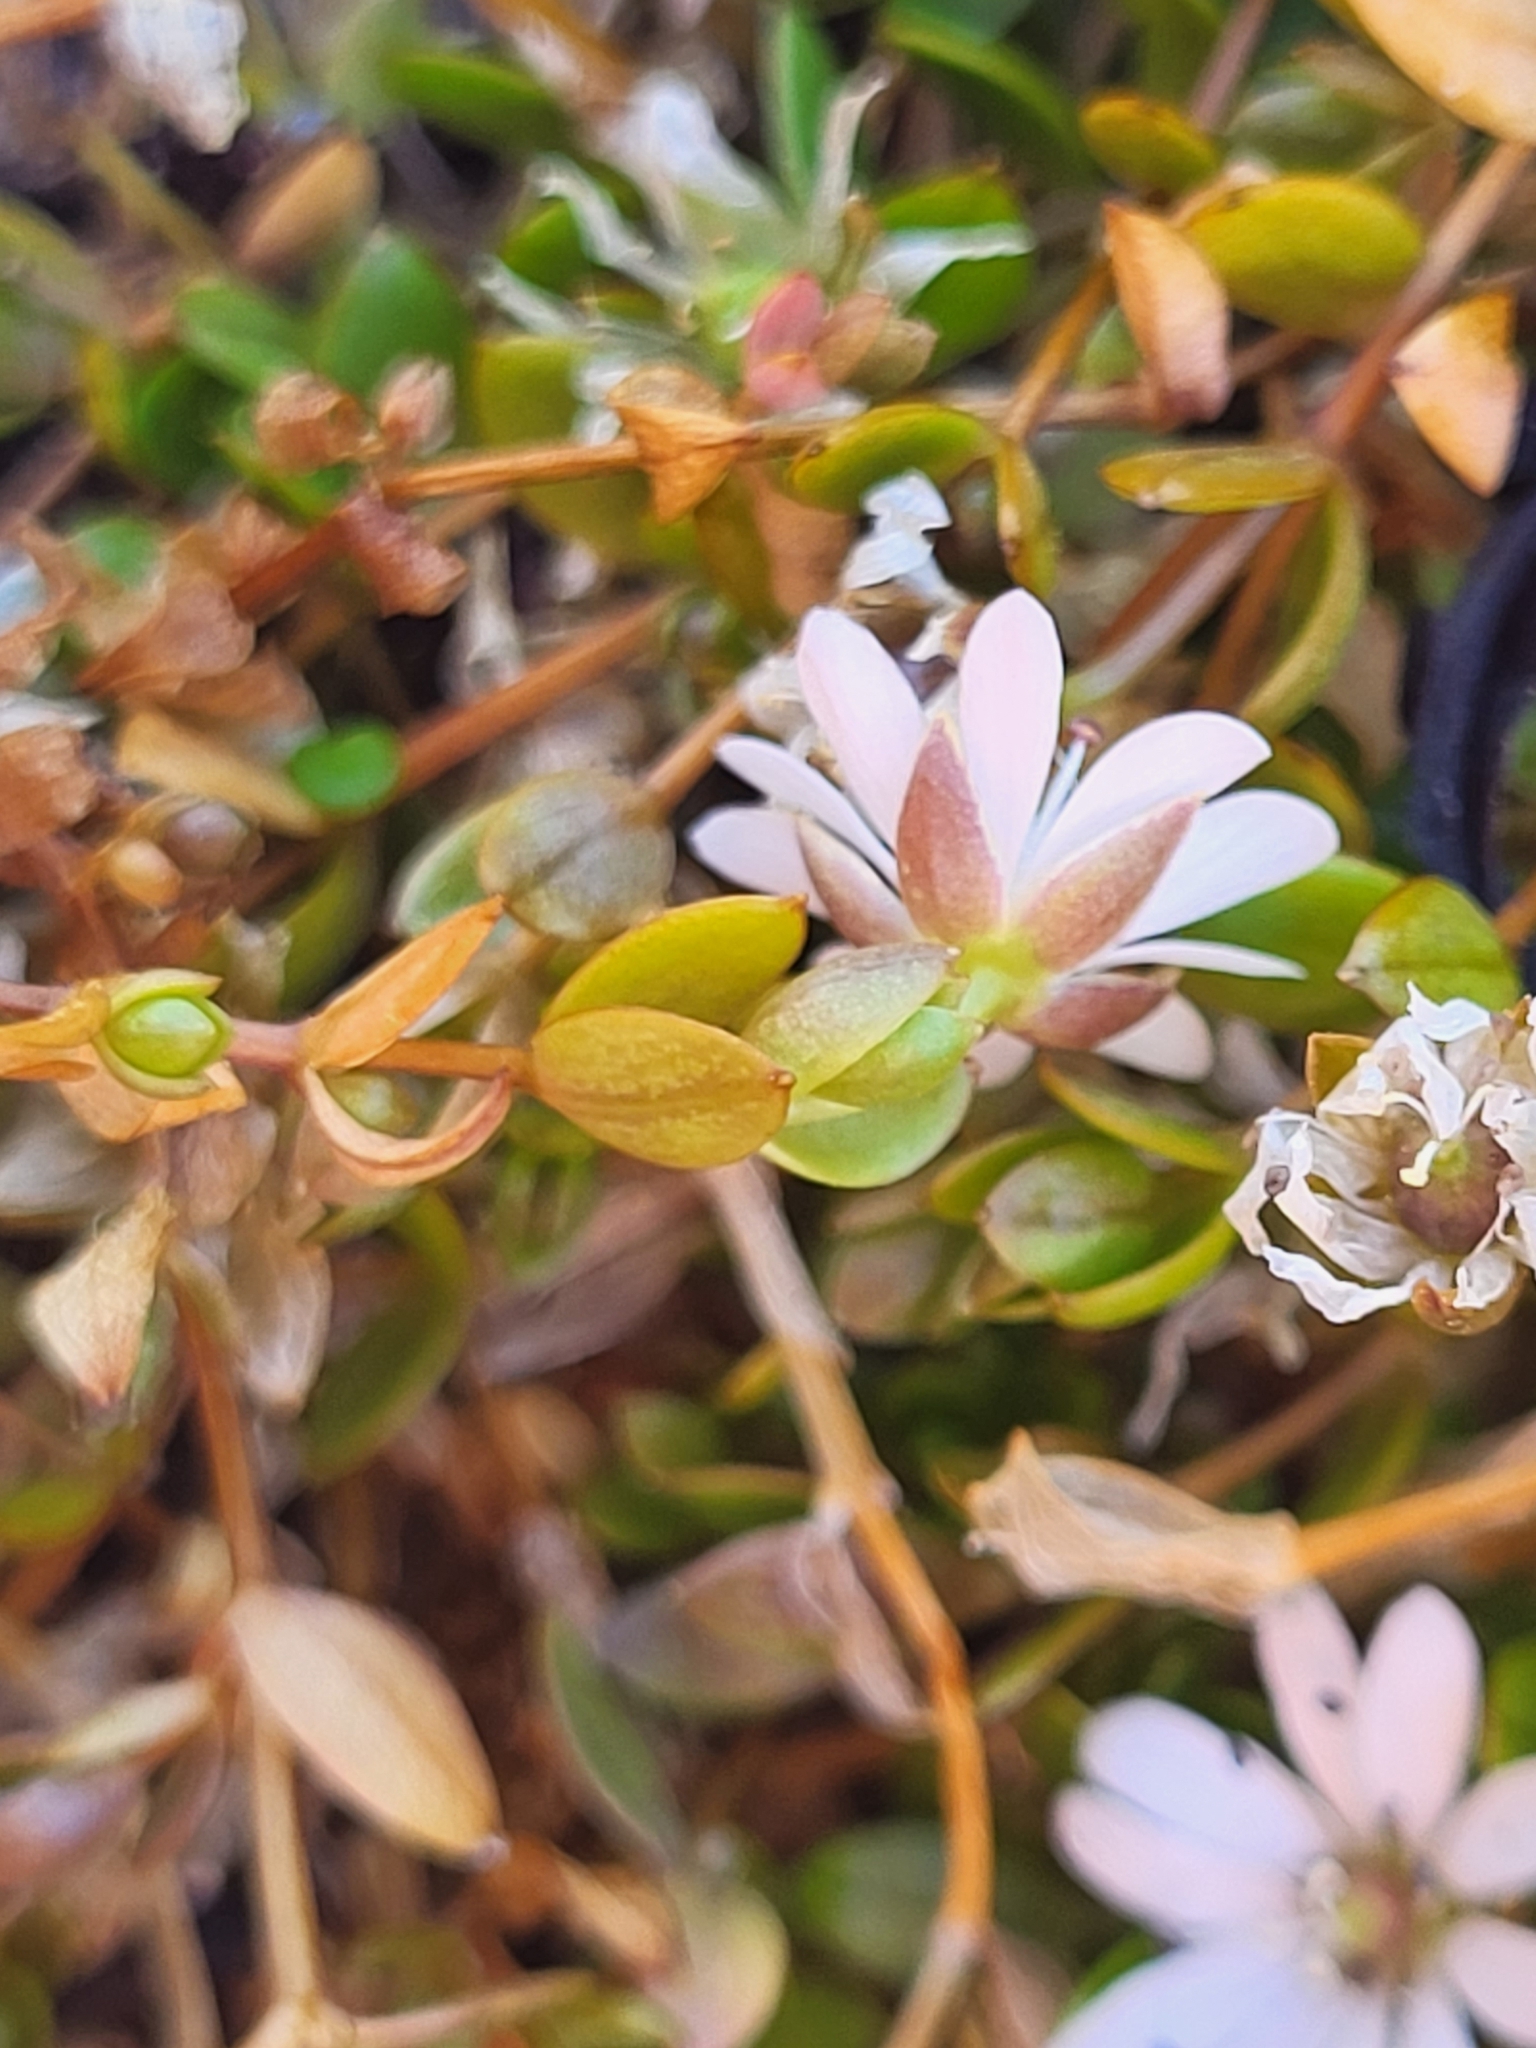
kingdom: Plantae
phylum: Tracheophyta
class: Magnoliopsida
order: Caryophyllales
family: Caryophyllaceae
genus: Stellaria
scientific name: Stellaria humifusa
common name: Creeping starwort
